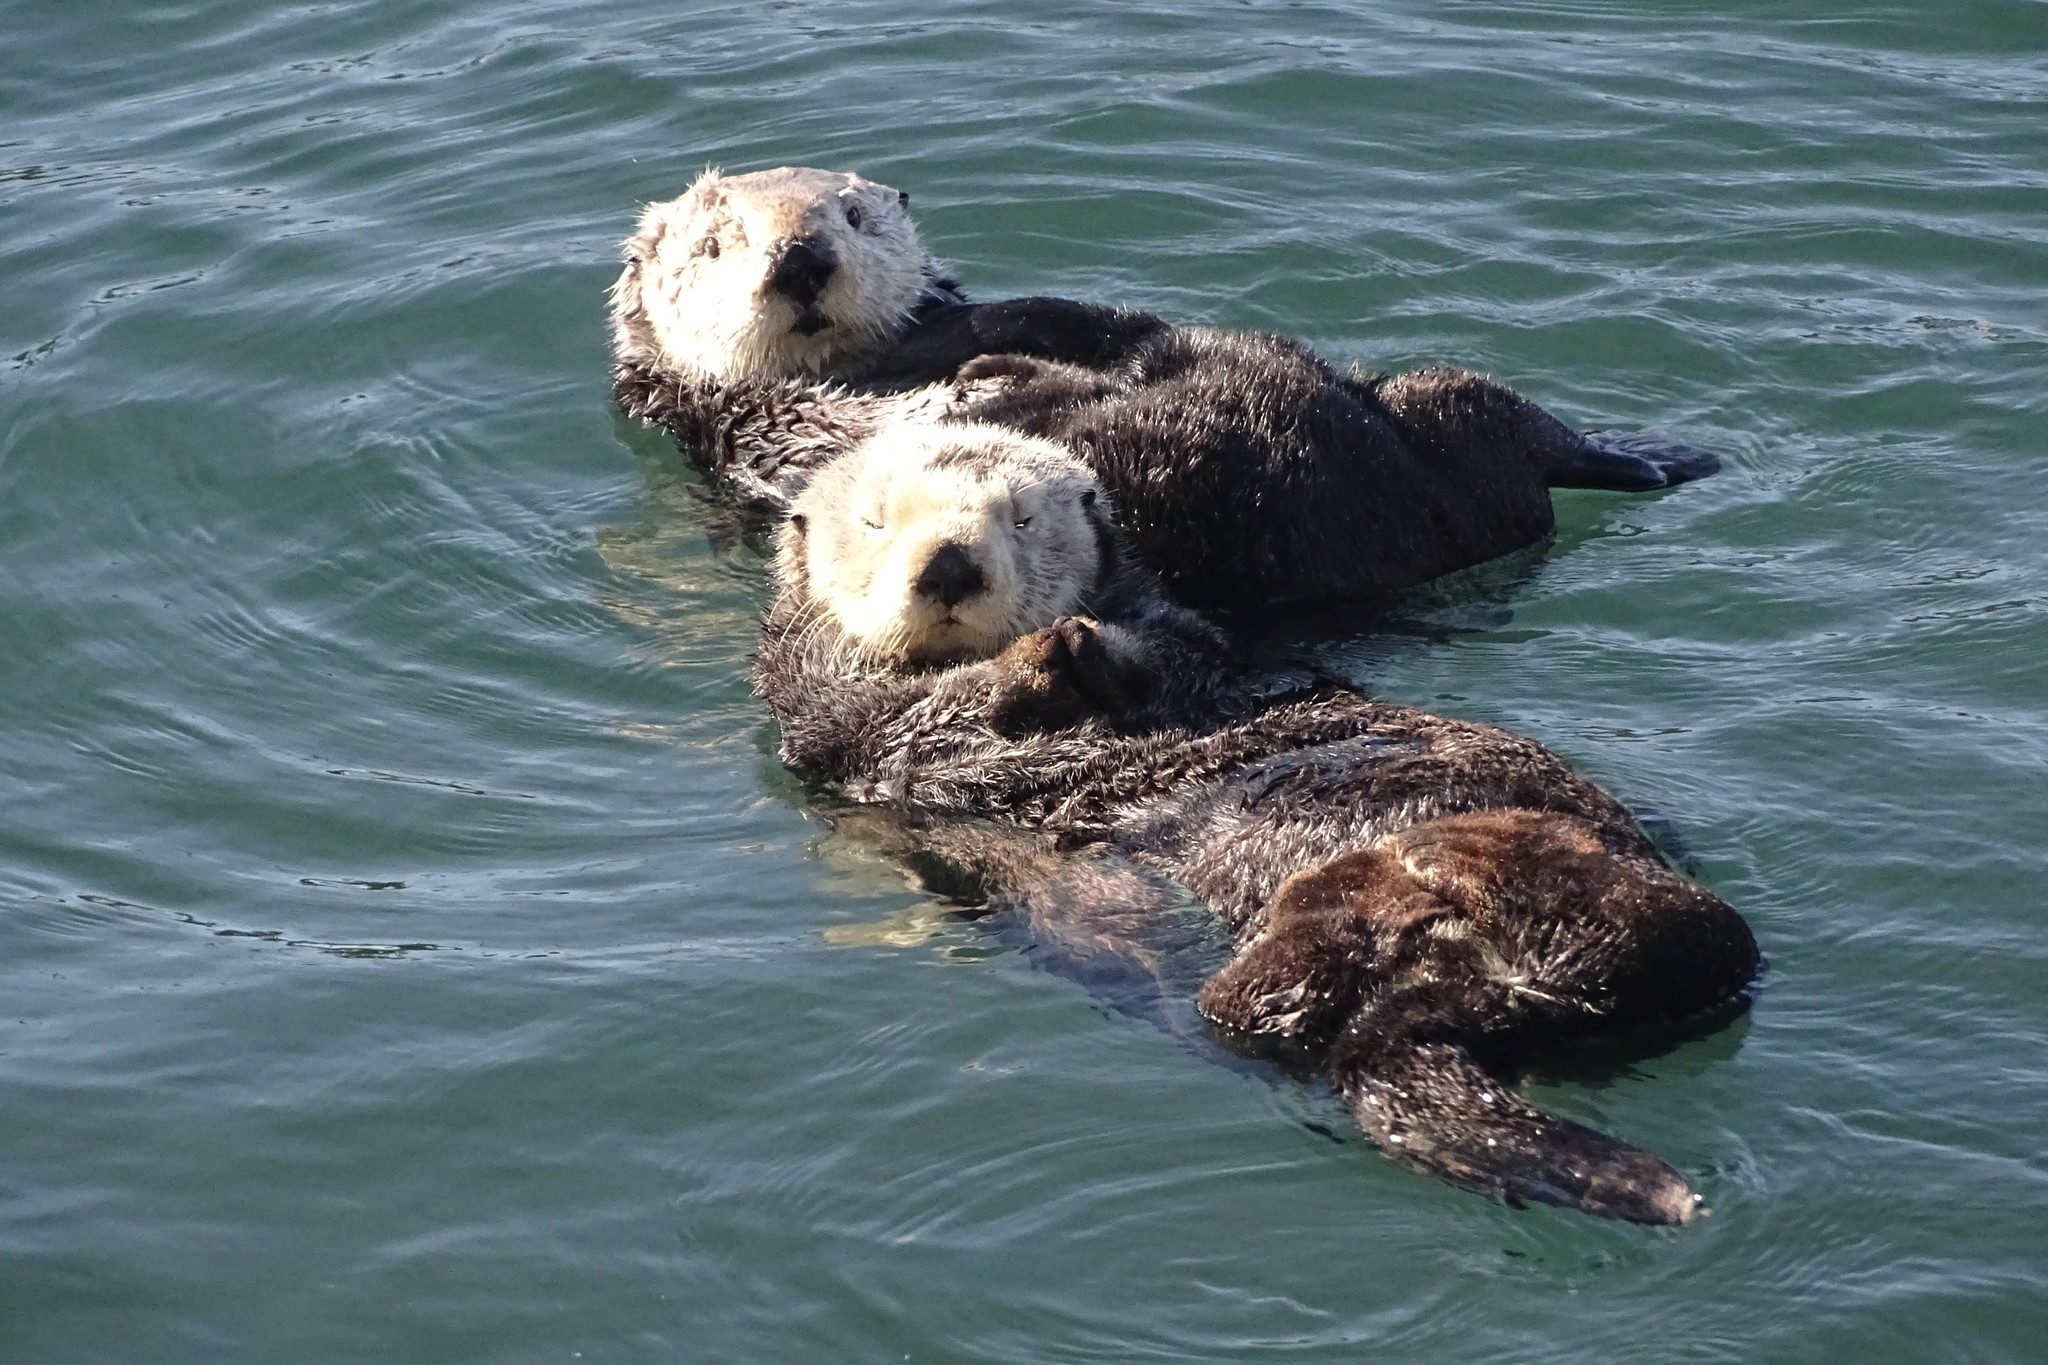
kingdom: Animalia
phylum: Chordata
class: Mammalia
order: Carnivora
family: Mustelidae
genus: Enhydra
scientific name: Enhydra lutris
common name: Sea otter
